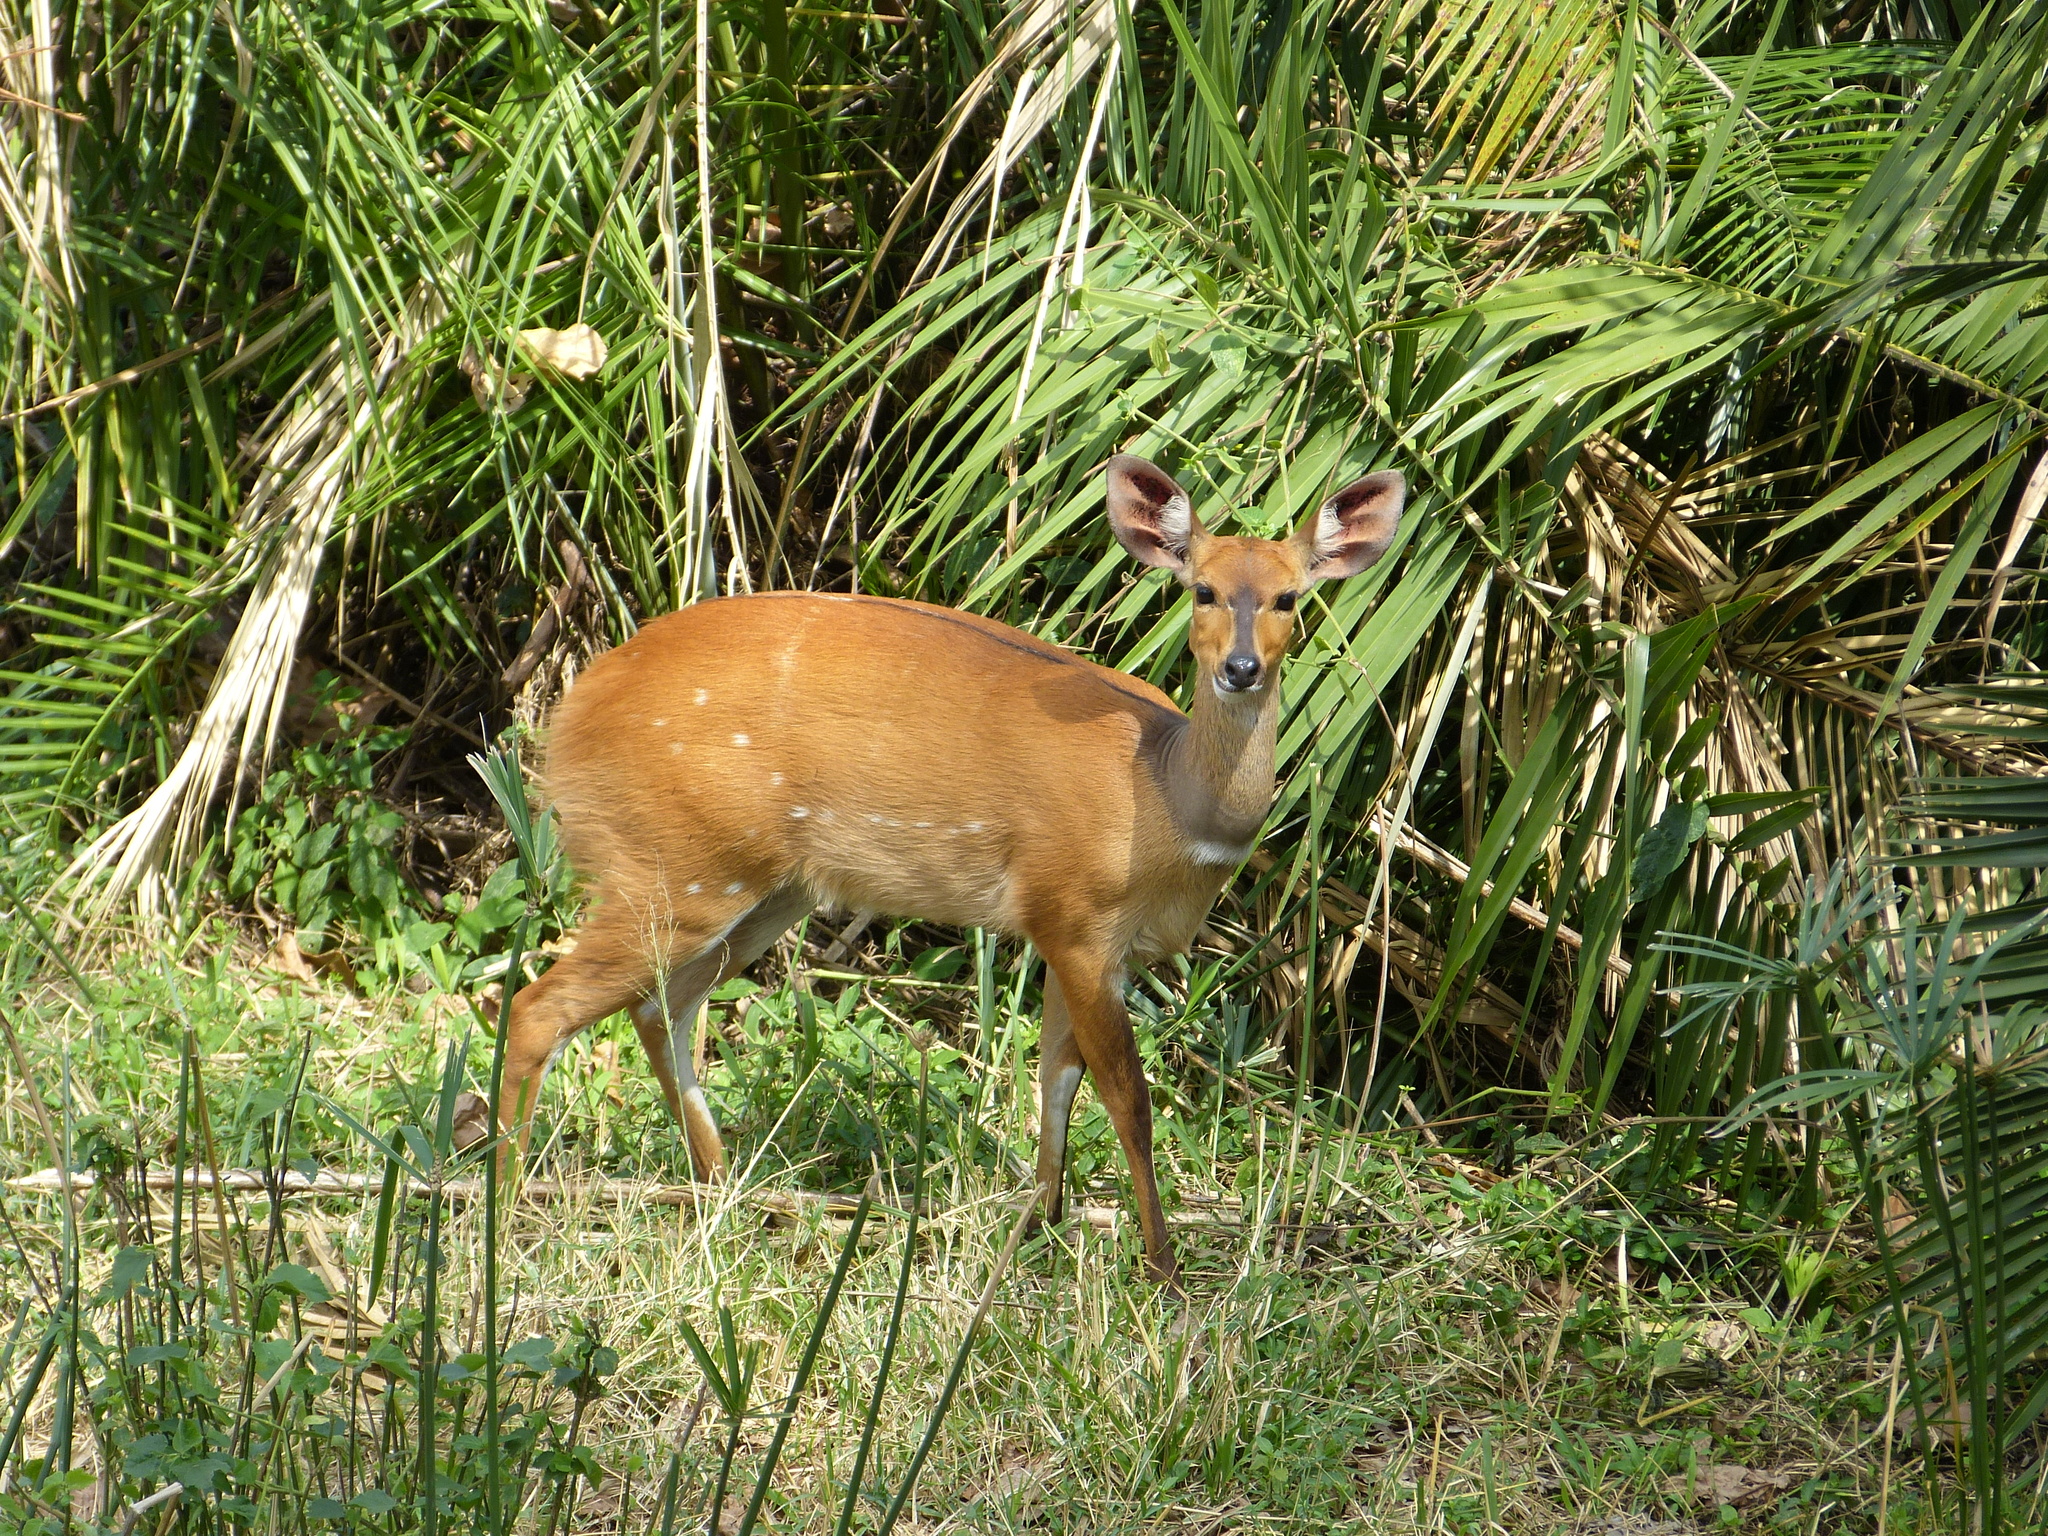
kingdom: Animalia
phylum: Chordata
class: Mammalia
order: Artiodactyla
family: Bovidae
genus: Tragelaphus
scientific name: Tragelaphus scriptus
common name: Bushbuck
